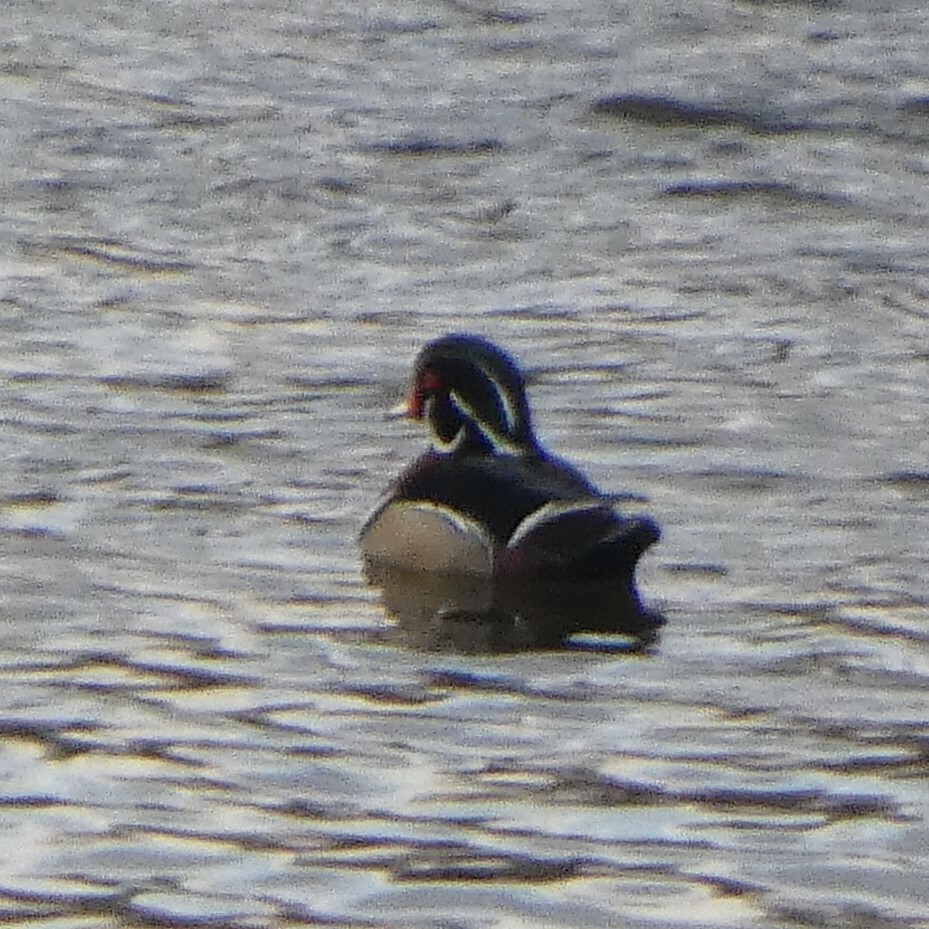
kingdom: Animalia
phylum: Chordata
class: Aves
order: Anseriformes
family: Anatidae
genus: Aix
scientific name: Aix sponsa
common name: Wood duck
